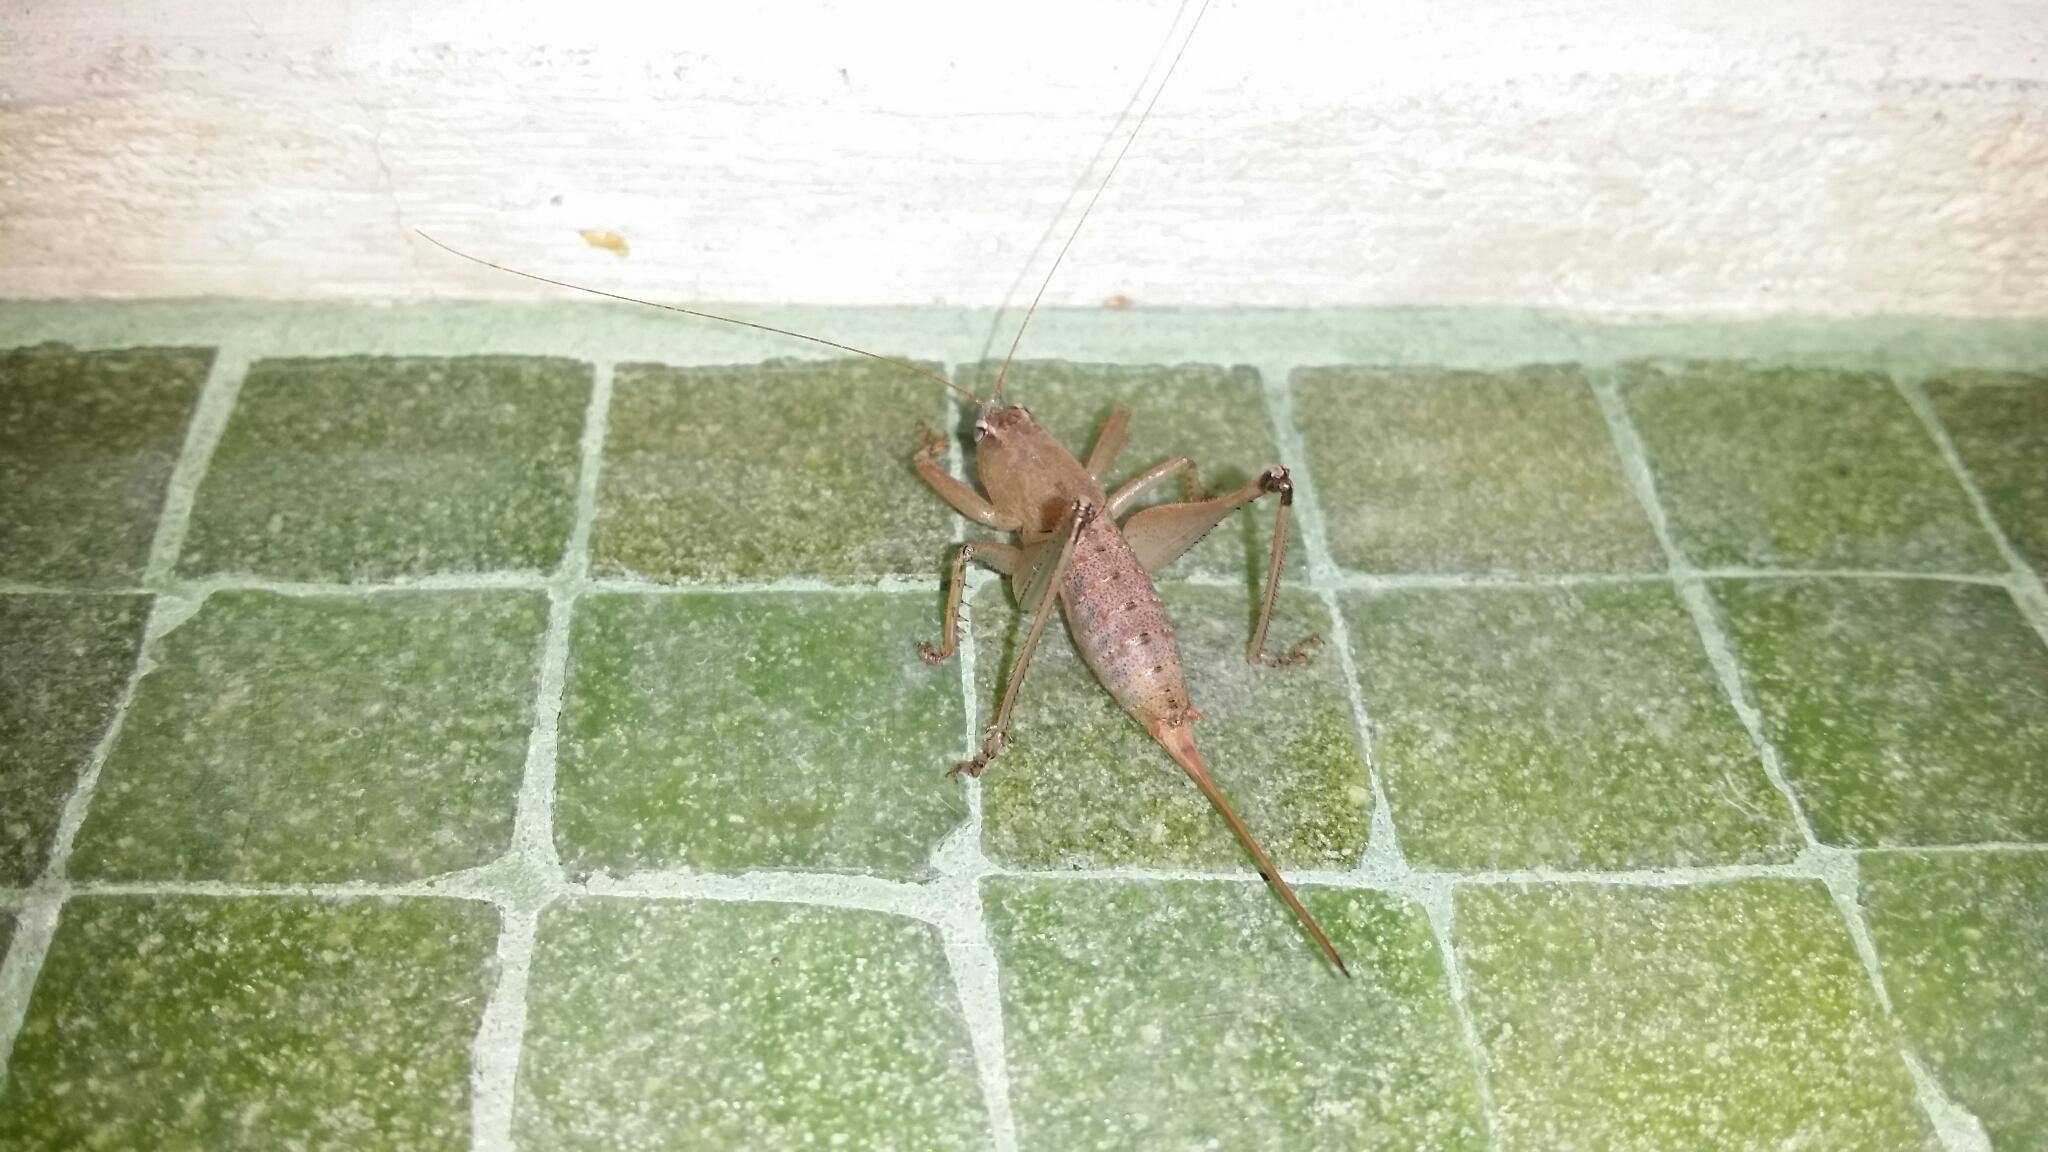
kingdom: Animalia
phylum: Arthropoda
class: Insecta
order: Orthoptera
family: Tettigoniidae
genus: Requena
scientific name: Requena verticalis
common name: Common western requena
